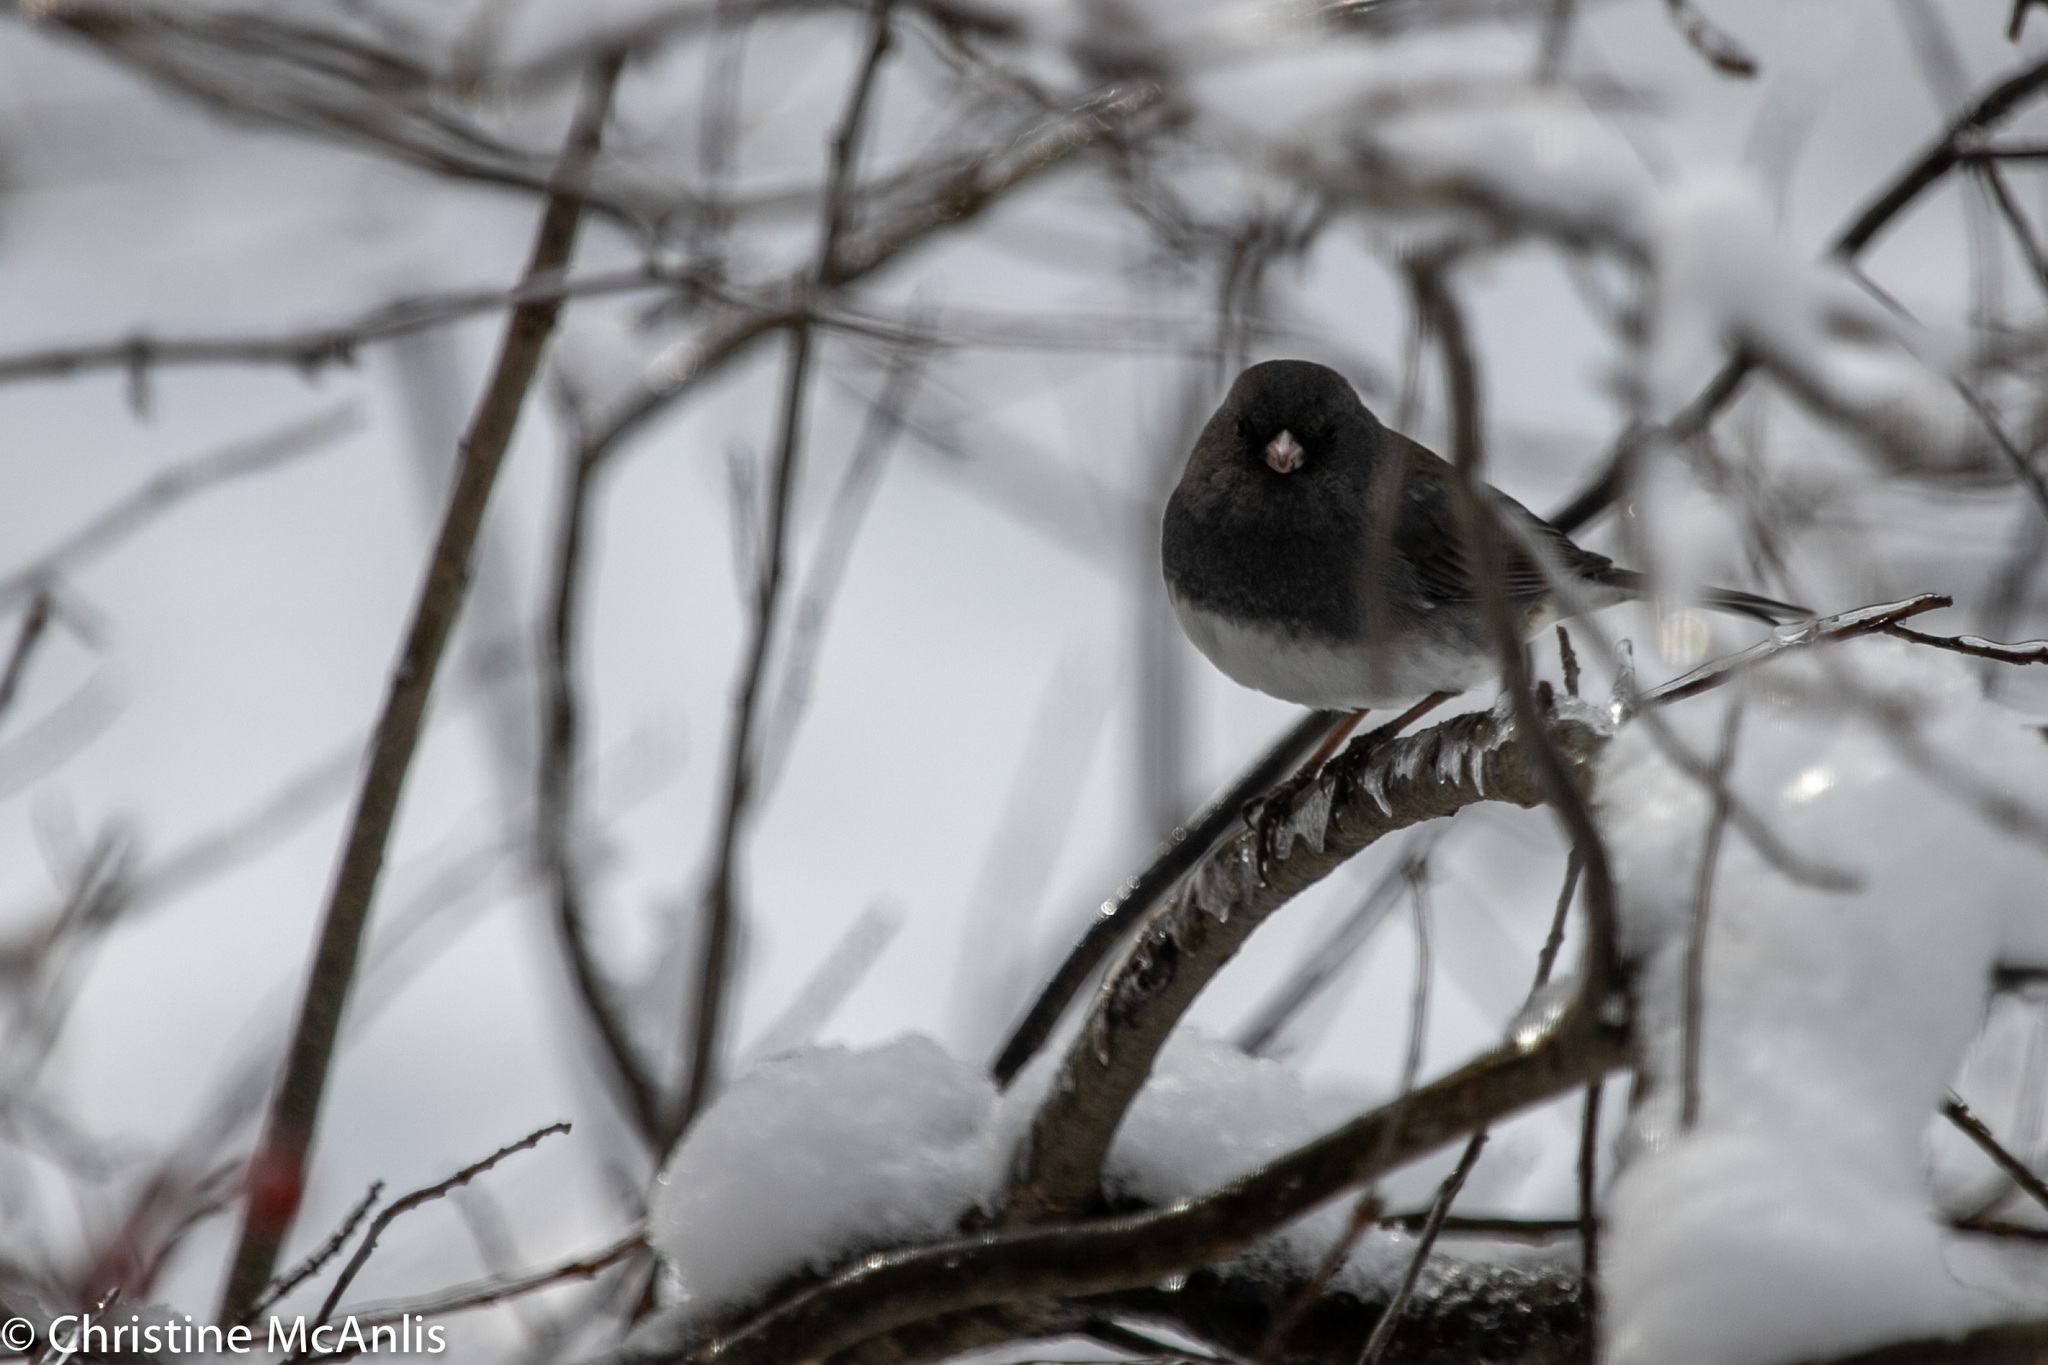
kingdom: Animalia
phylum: Chordata
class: Aves
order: Passeriformes
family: Passerellidae
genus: Junco
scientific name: Junco hyemalis
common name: Dark-eyed junco
